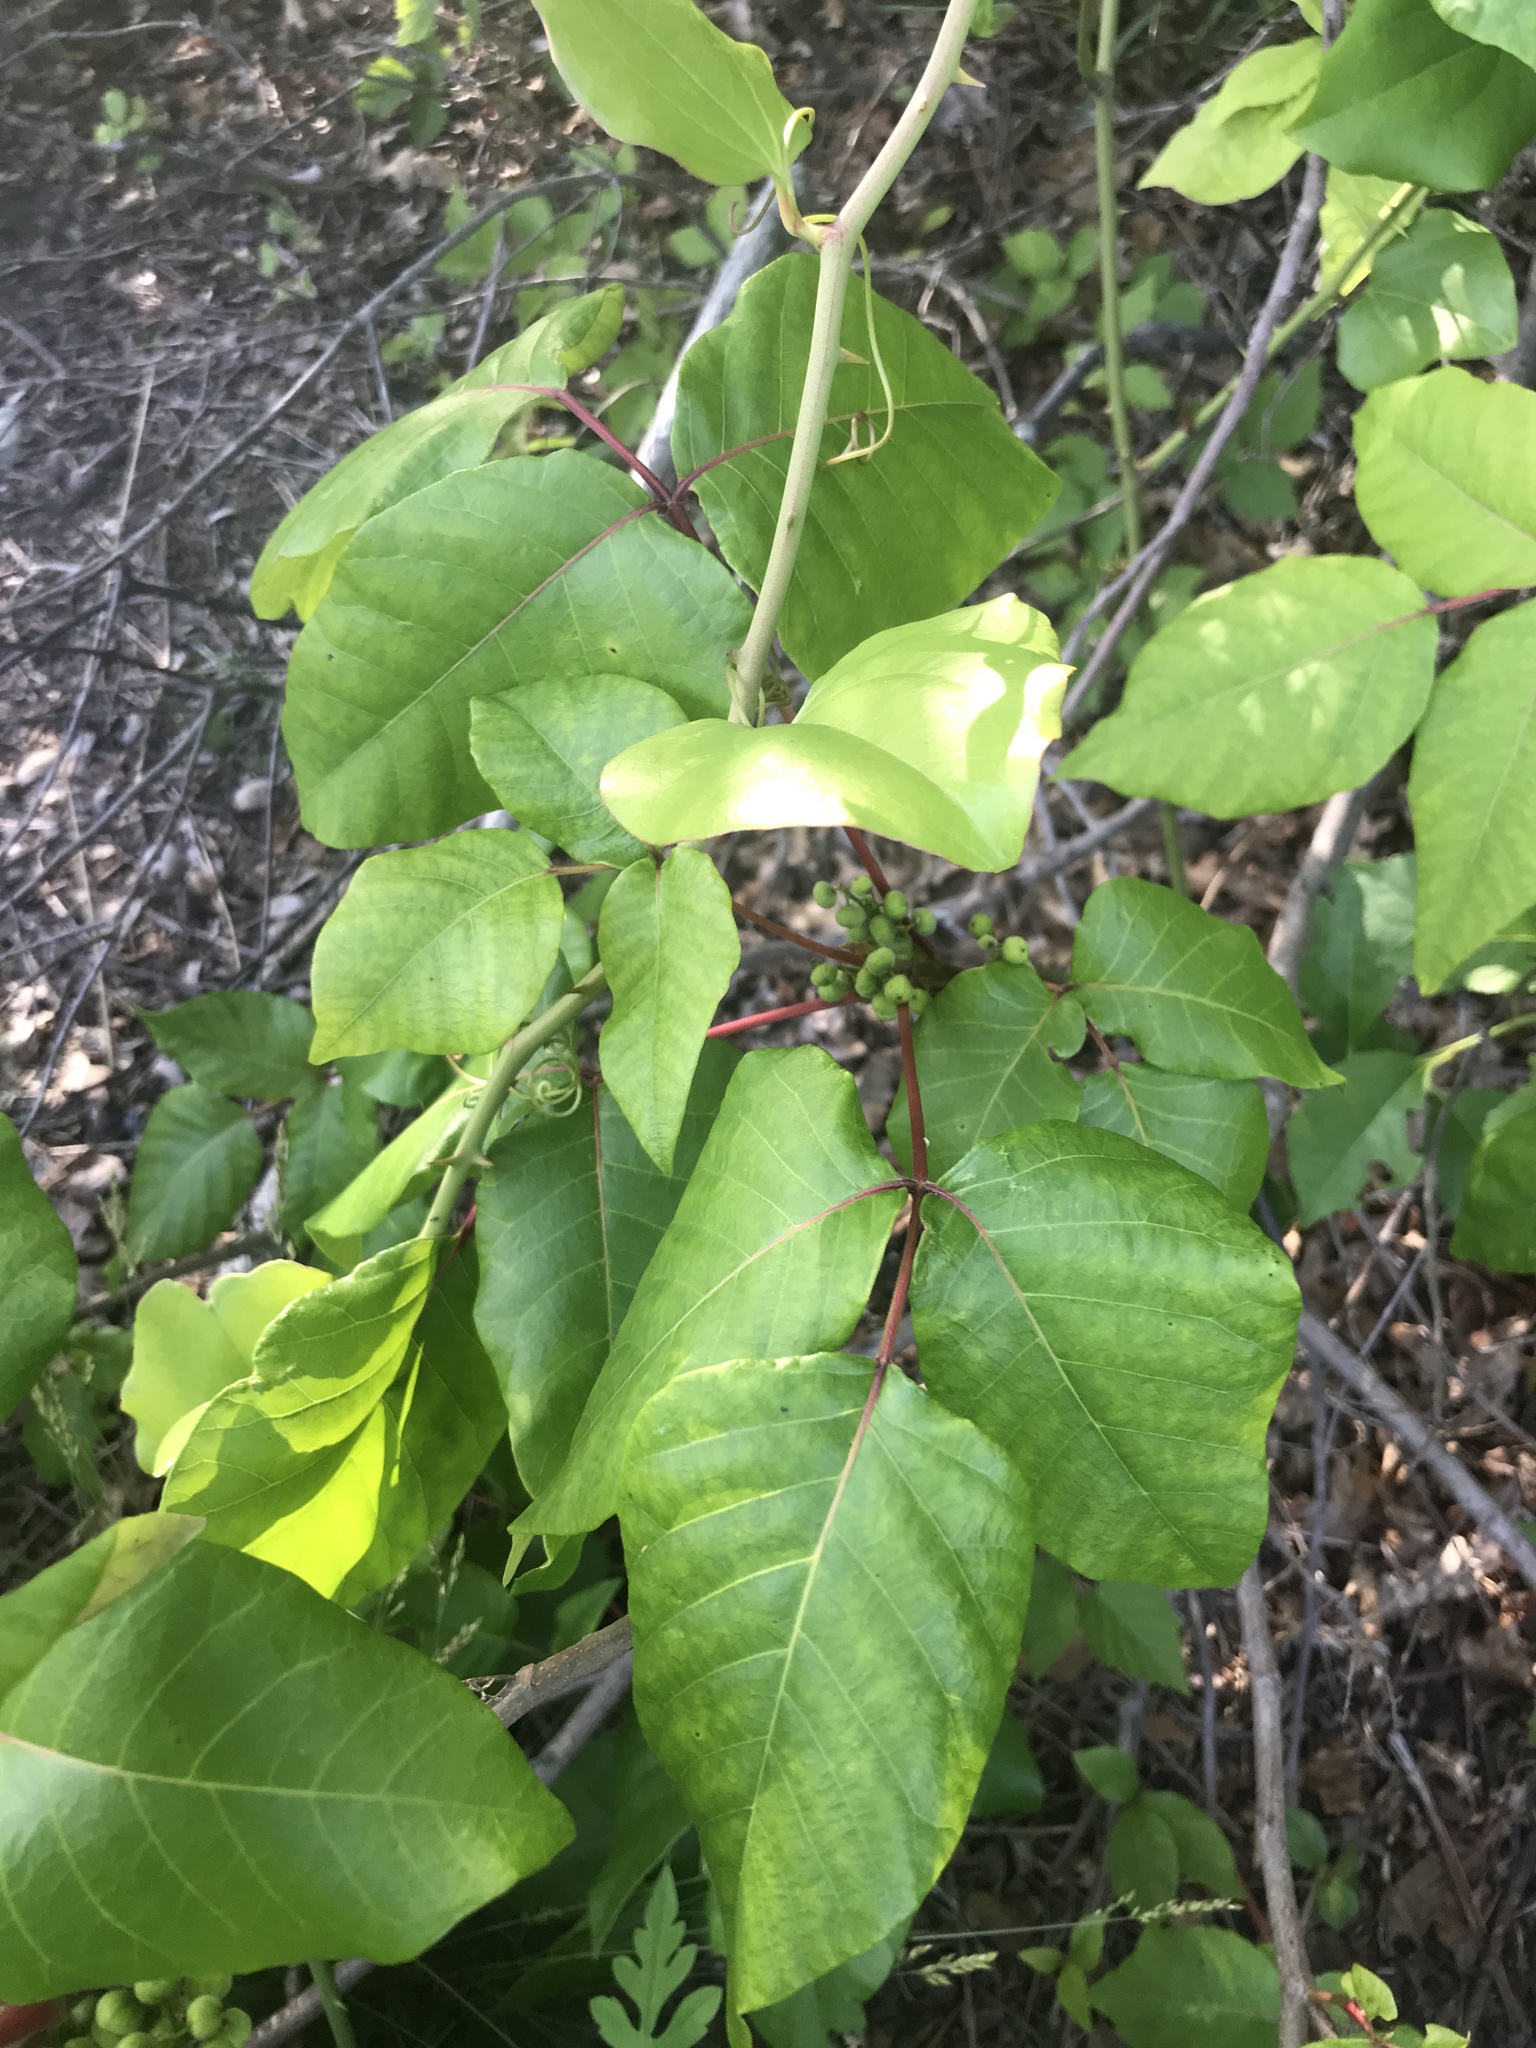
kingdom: Plantae
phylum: Tracheophyta
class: Magnoliopsida
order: Sapindales
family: Anacardiaceae
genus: Toxicodendron
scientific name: Toxicodendron radicans
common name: Poison ivy
